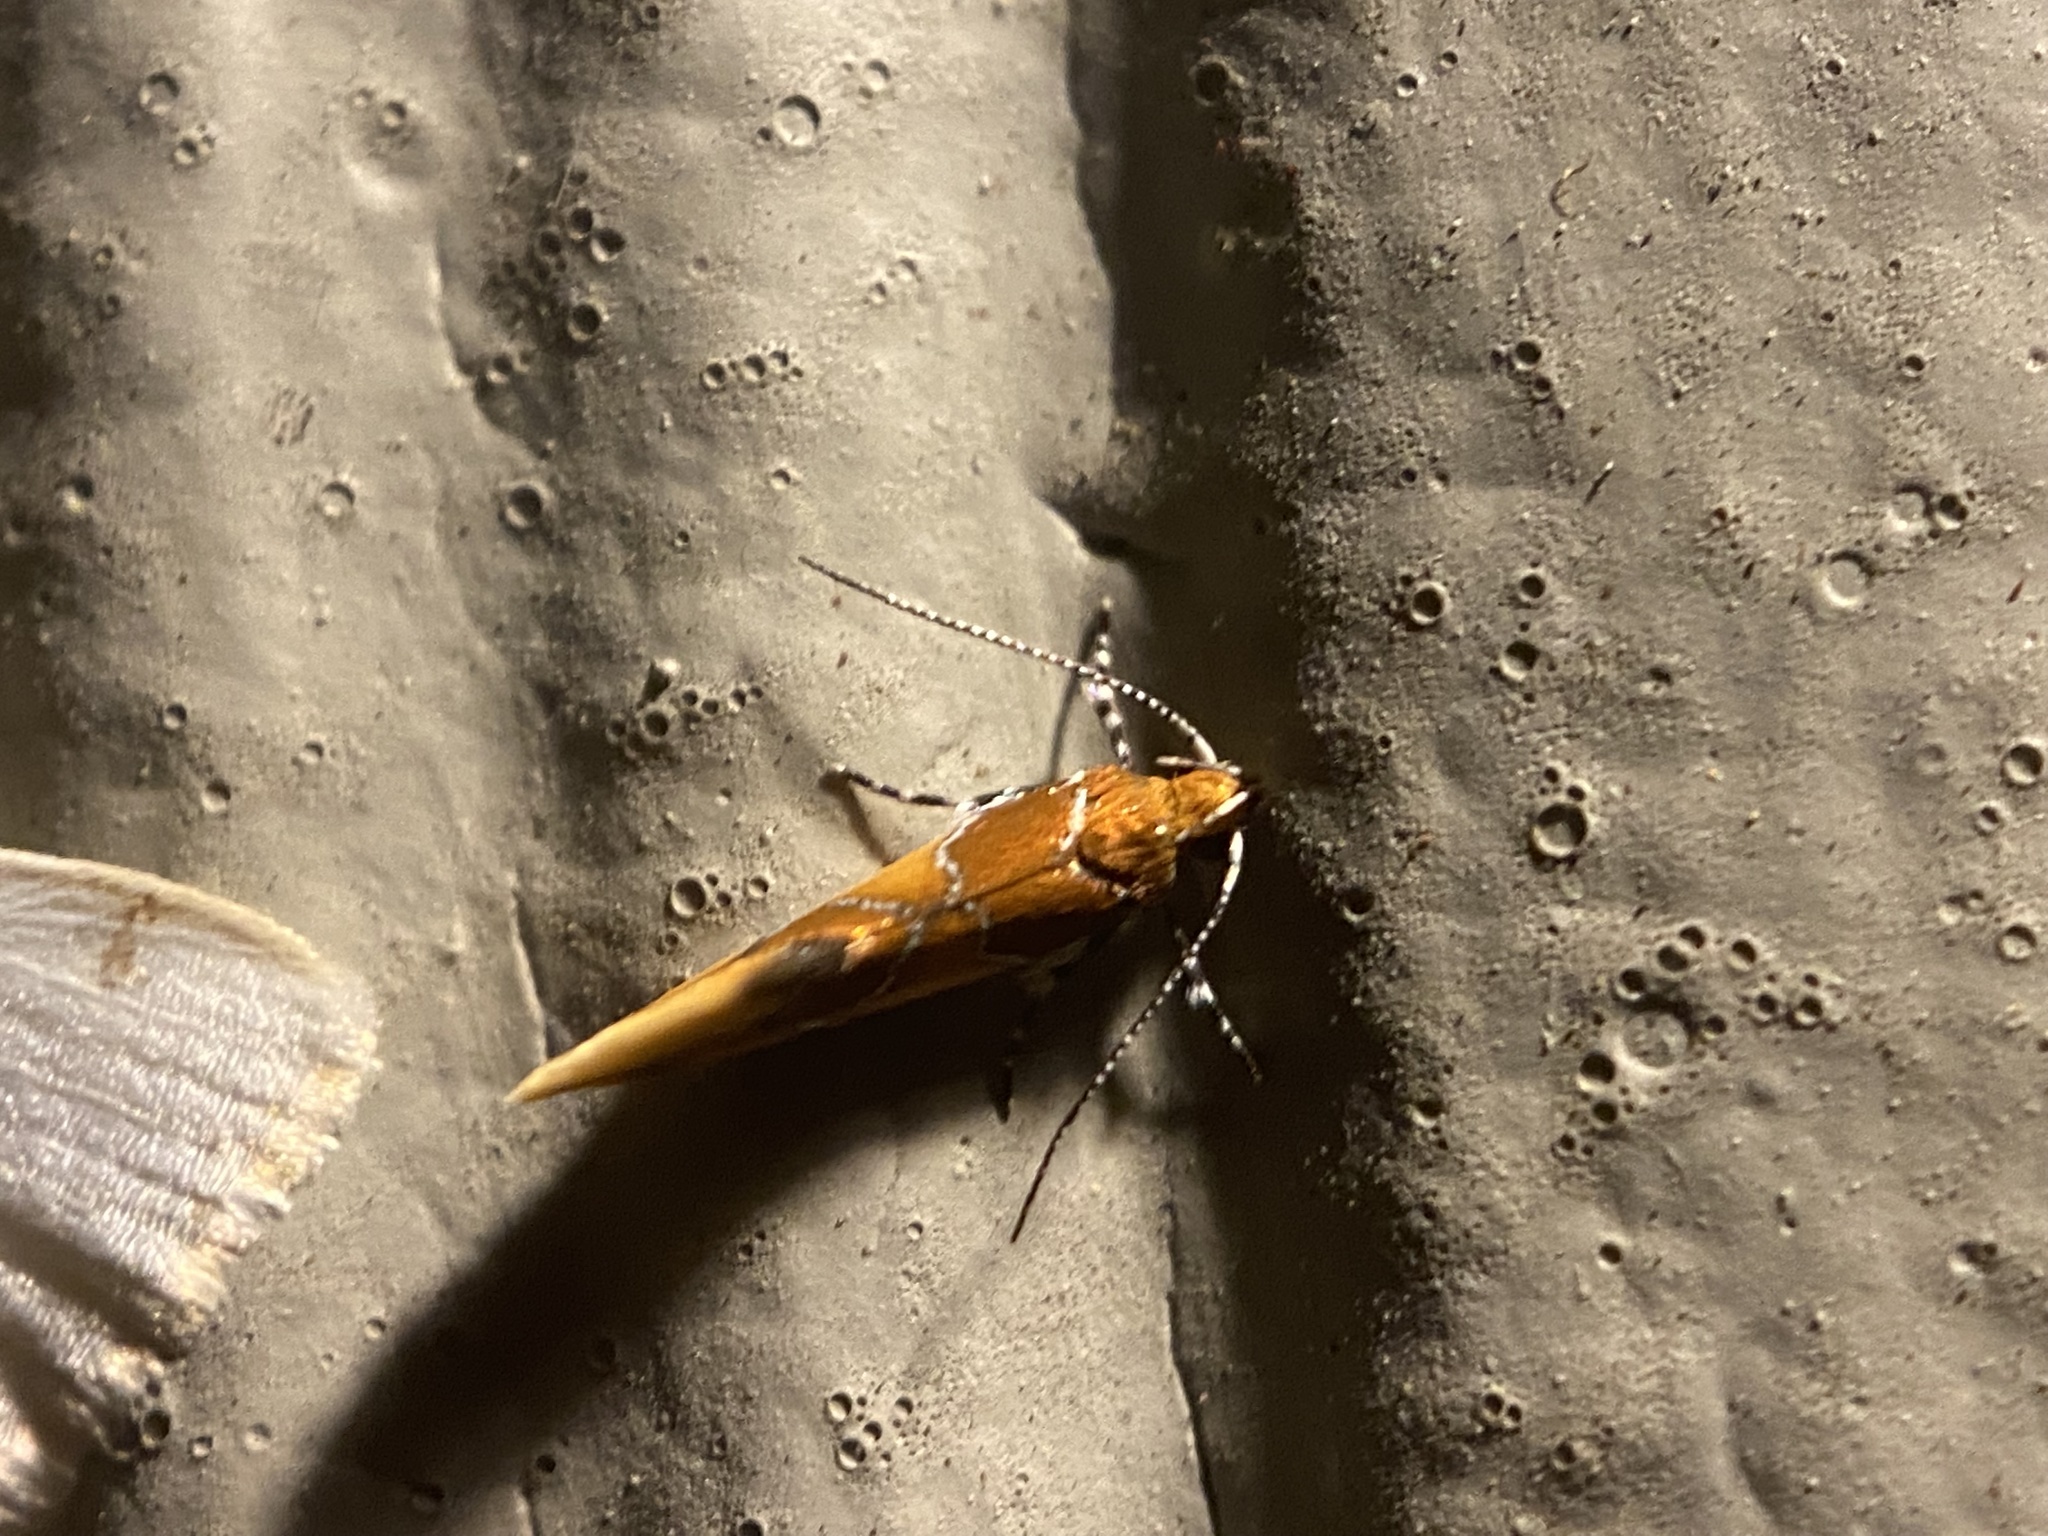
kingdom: Animalia
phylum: Arthropoda
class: Insecta
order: Lepidoptera
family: Oecophoridae
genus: Callima
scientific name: Callima argenticinctella
